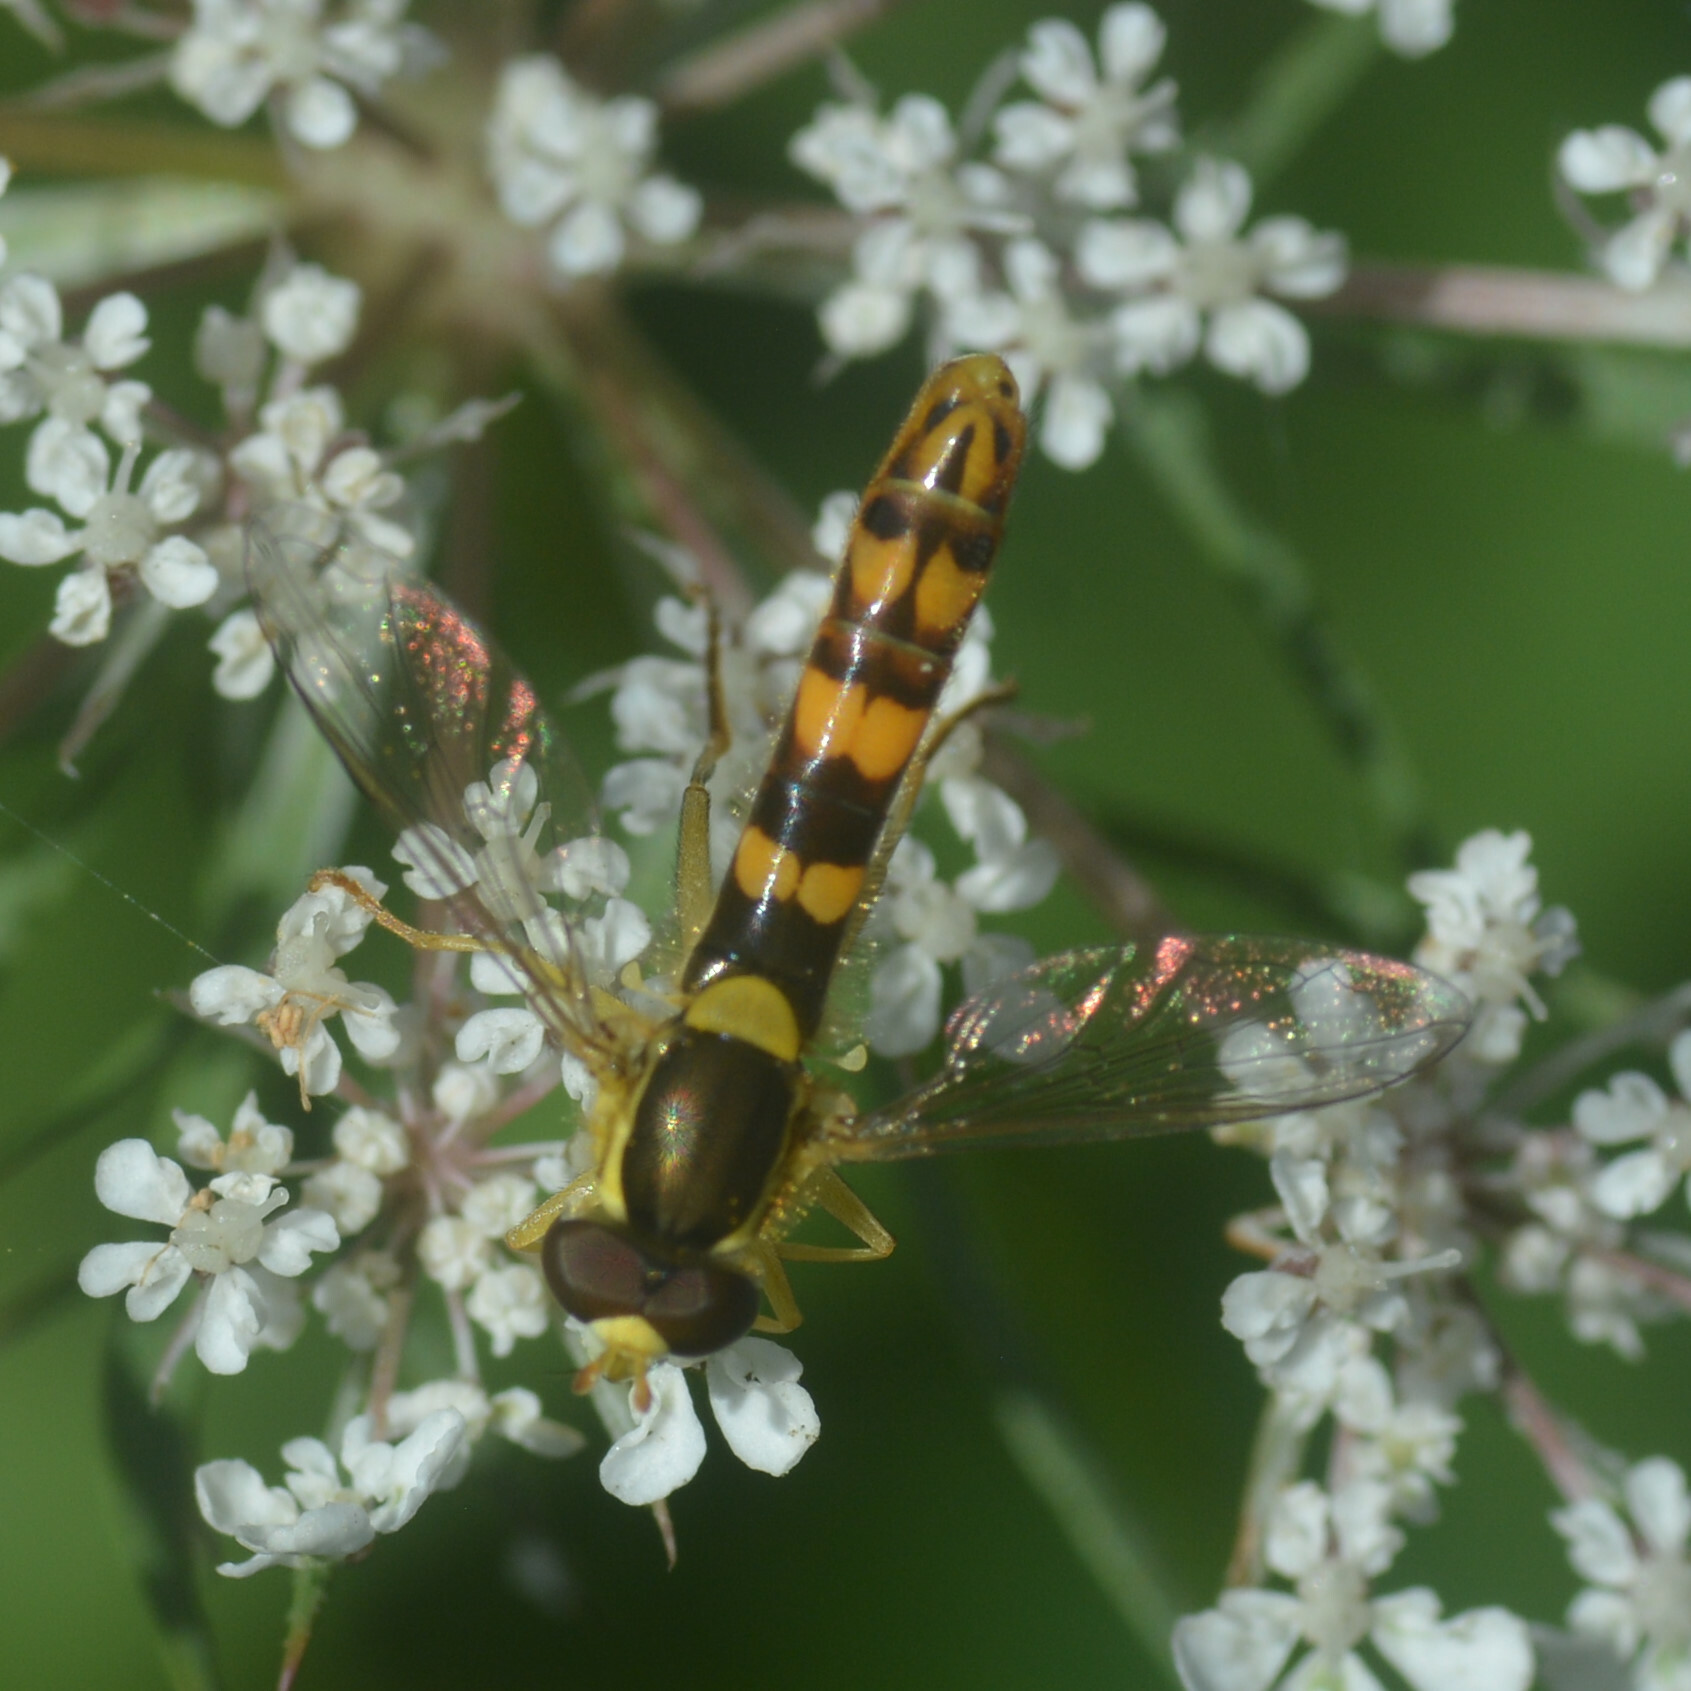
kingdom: Animalia
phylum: Arthropoda
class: Insecta
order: Diptera
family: Syrphidae
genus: Sphaerophoria
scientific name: Sphaerophoria scripta
